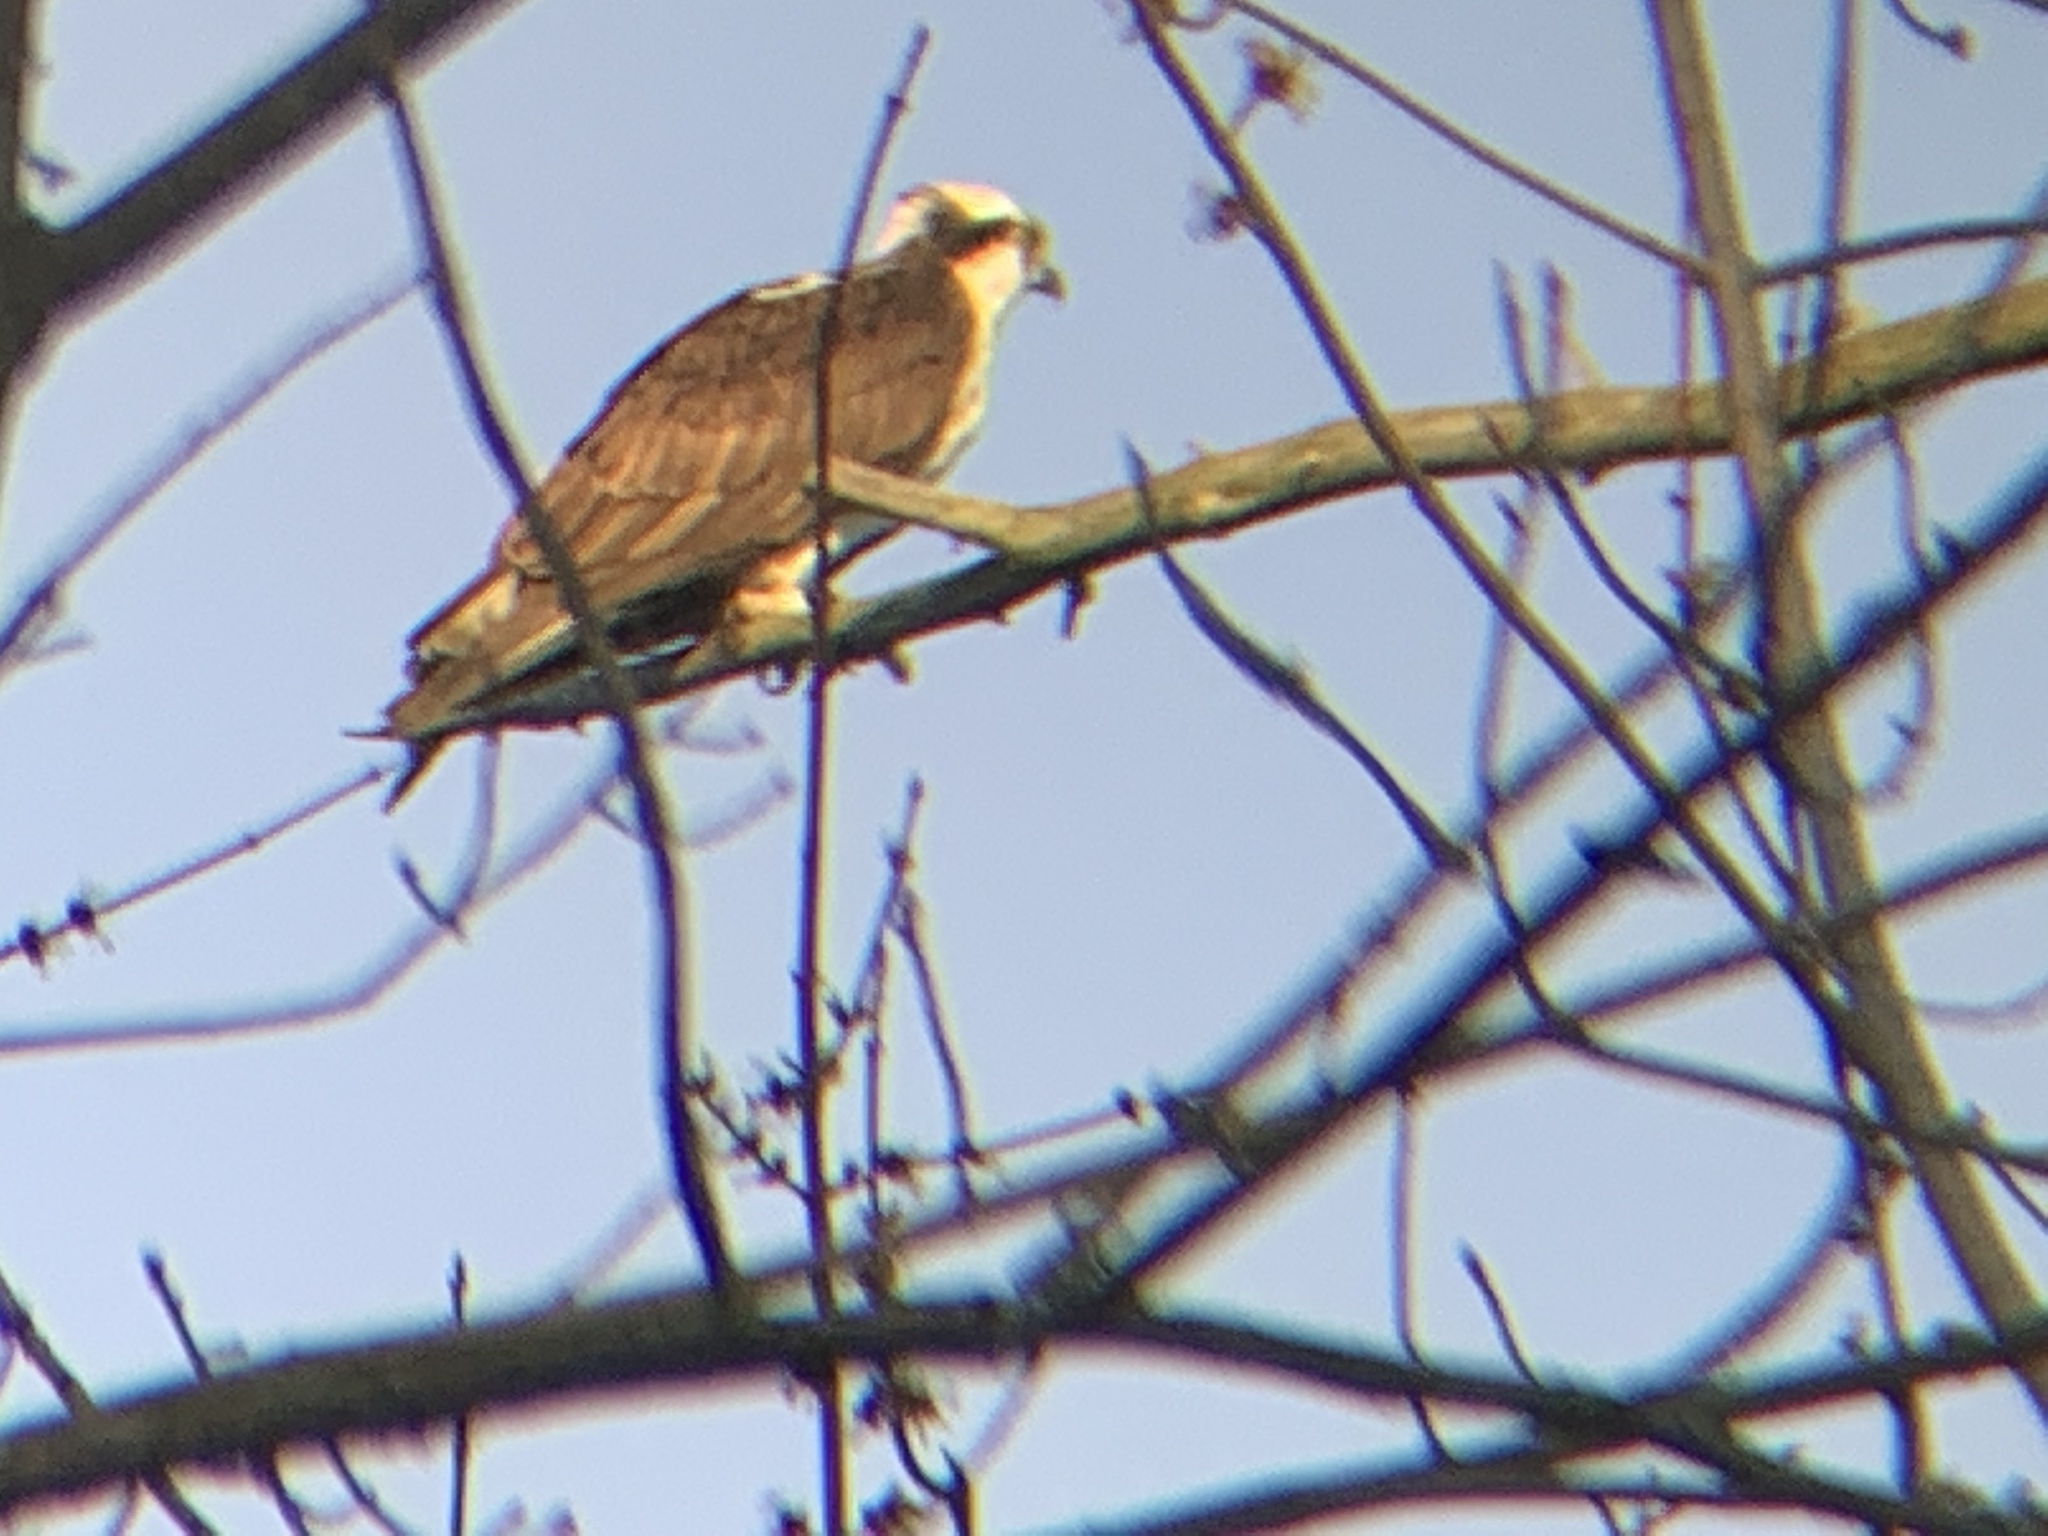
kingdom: Animalia
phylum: Chordata
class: Aves
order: Accipitriformes
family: Pandionidae
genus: Pandion
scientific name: Pandion haliaetus
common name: Osprey
